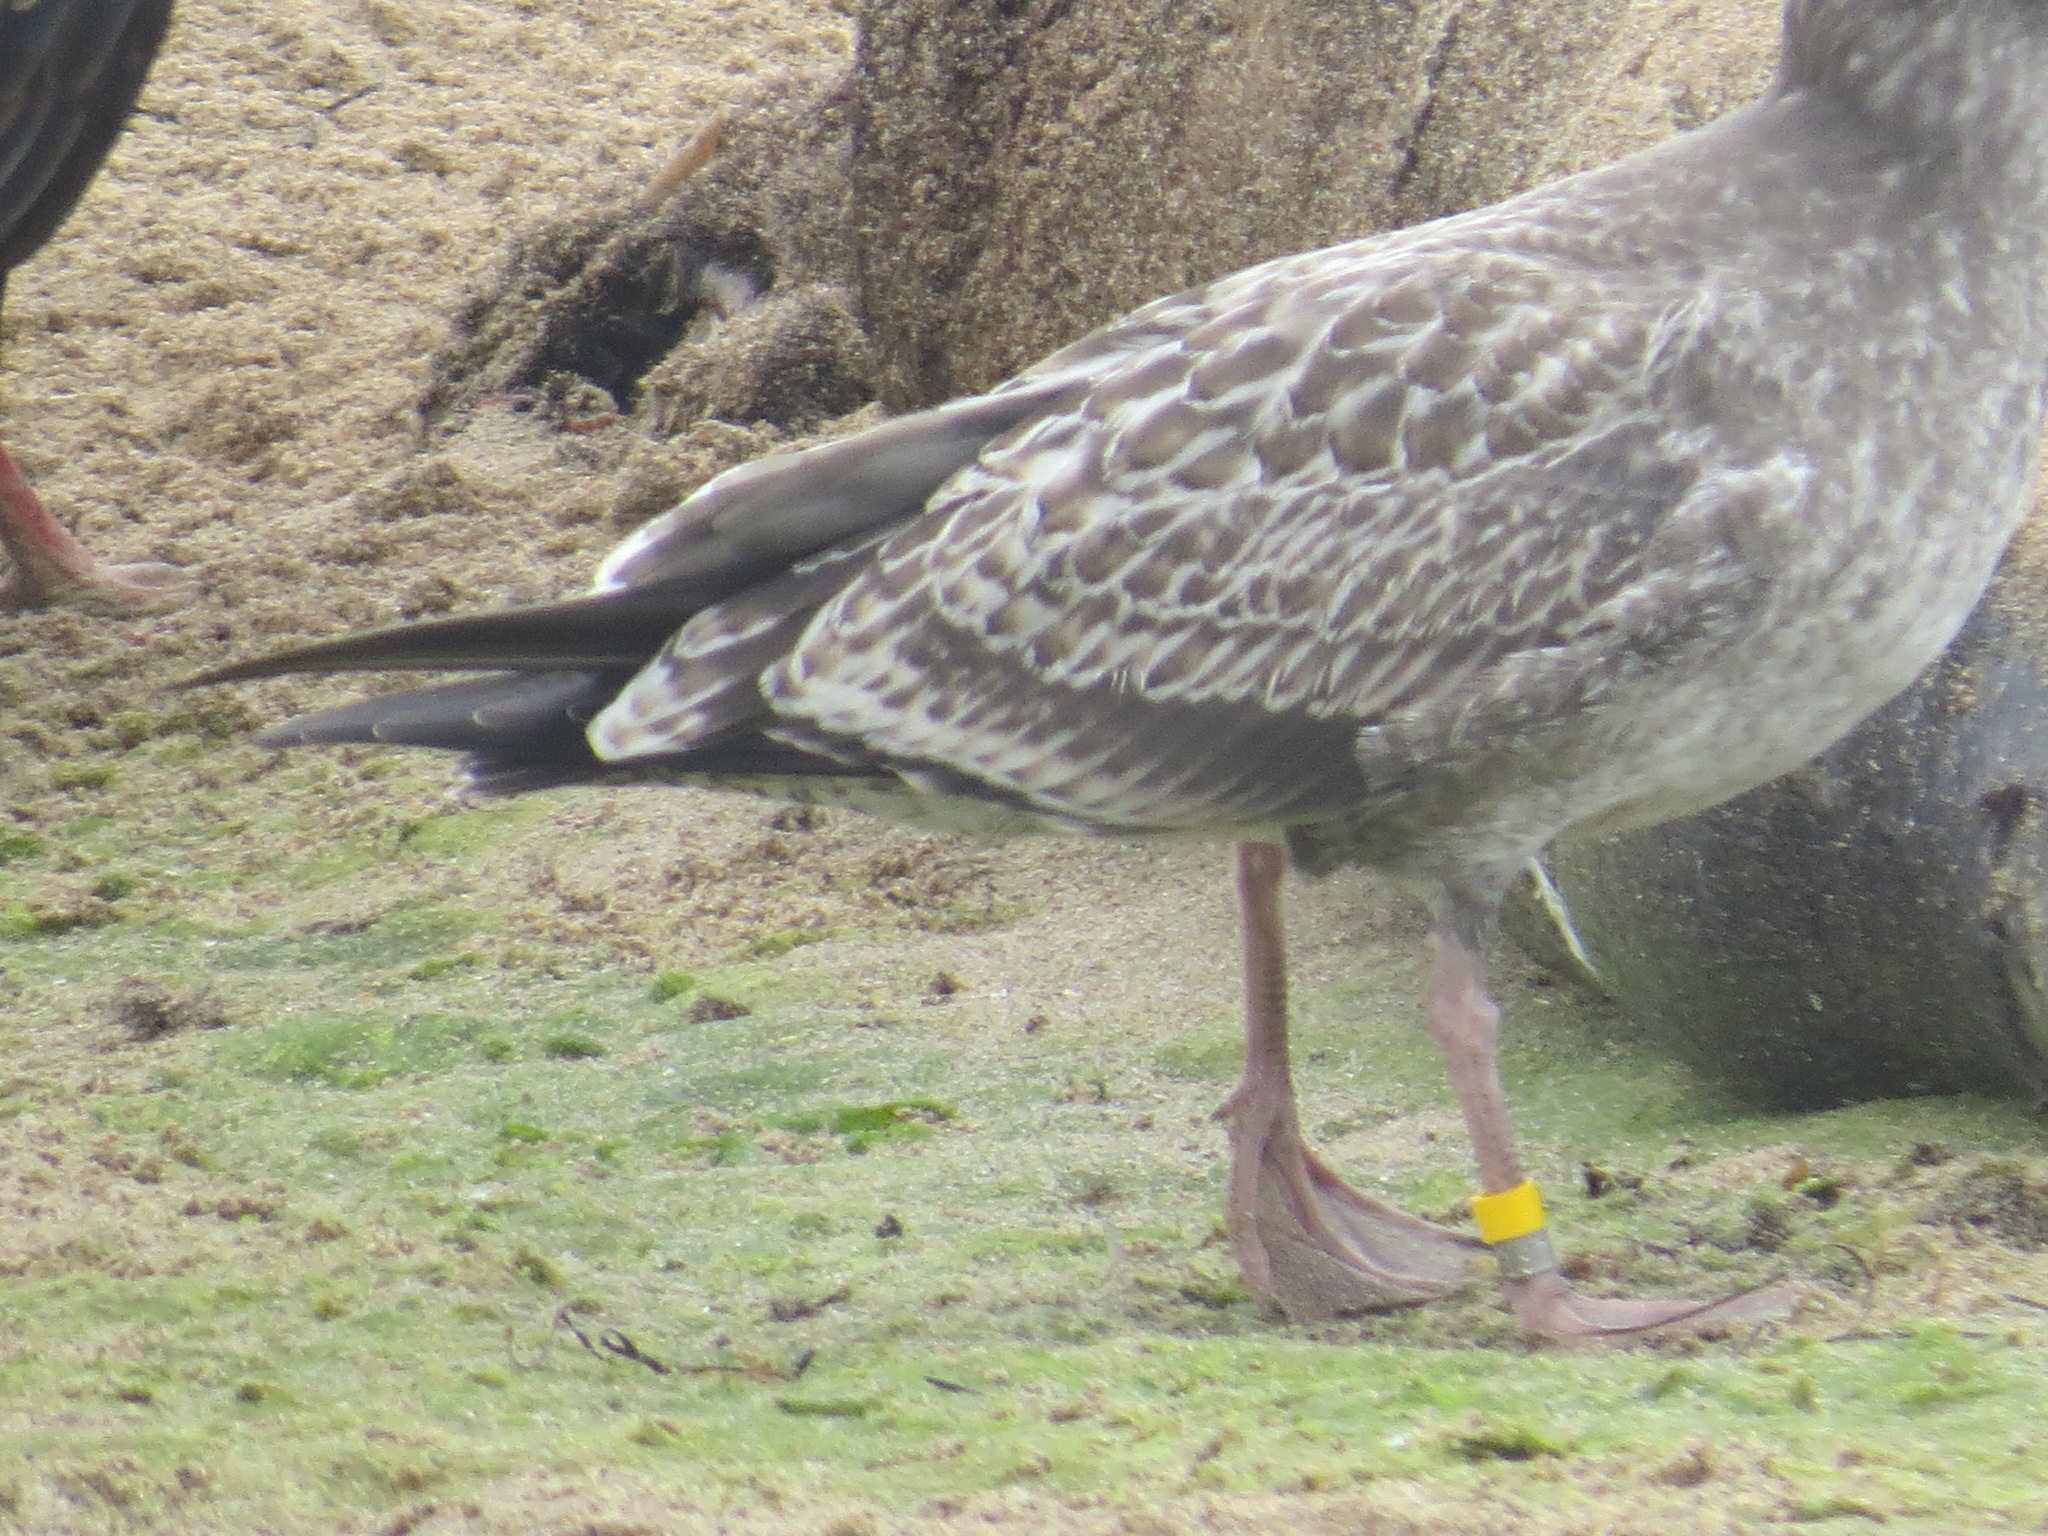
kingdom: Animalia
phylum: Chordata
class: Aves
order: Charadriiformes
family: Laridae
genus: Larus
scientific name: Larus occidentalis
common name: Western gull
